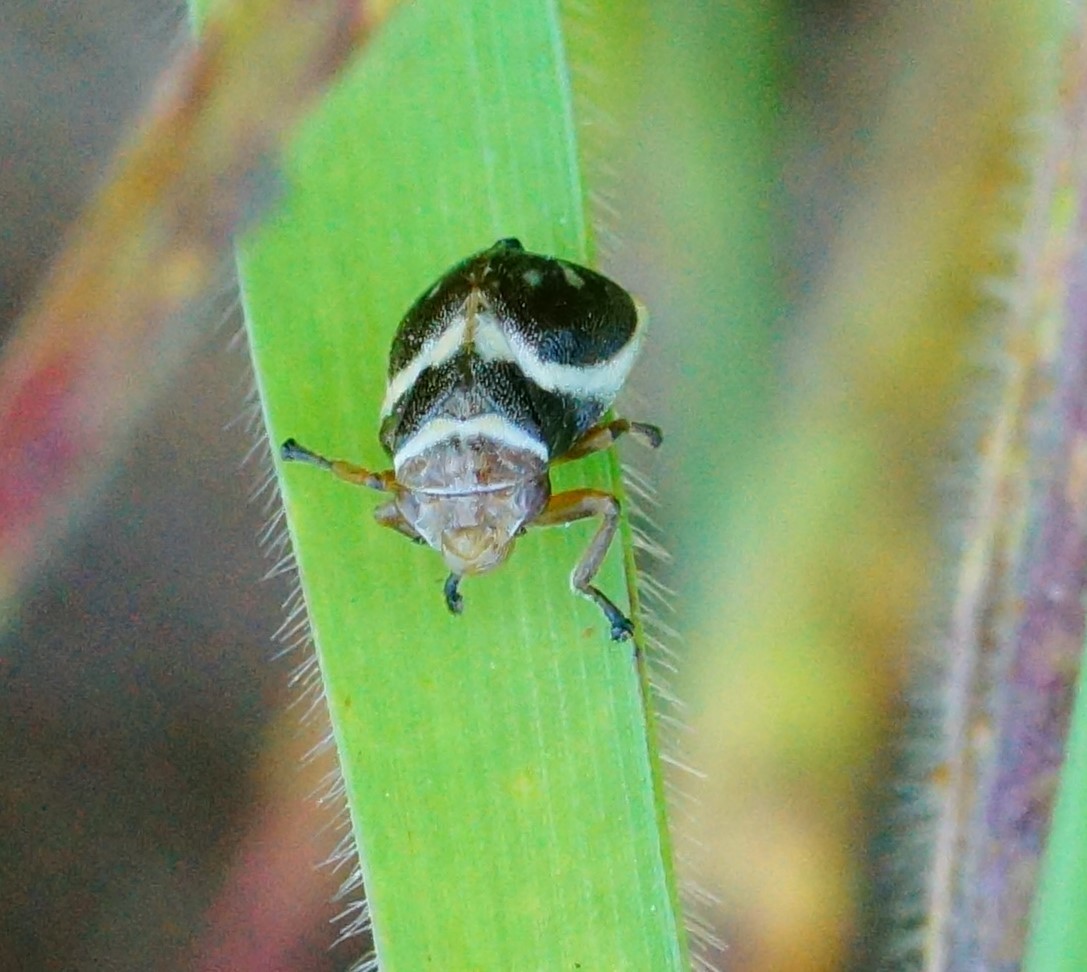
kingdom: Animalia
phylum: Arthropoda
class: Insecta
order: Hemiptera
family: Aphrophoridae
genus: Bathyllus
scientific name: Bathyllus albicinctus
